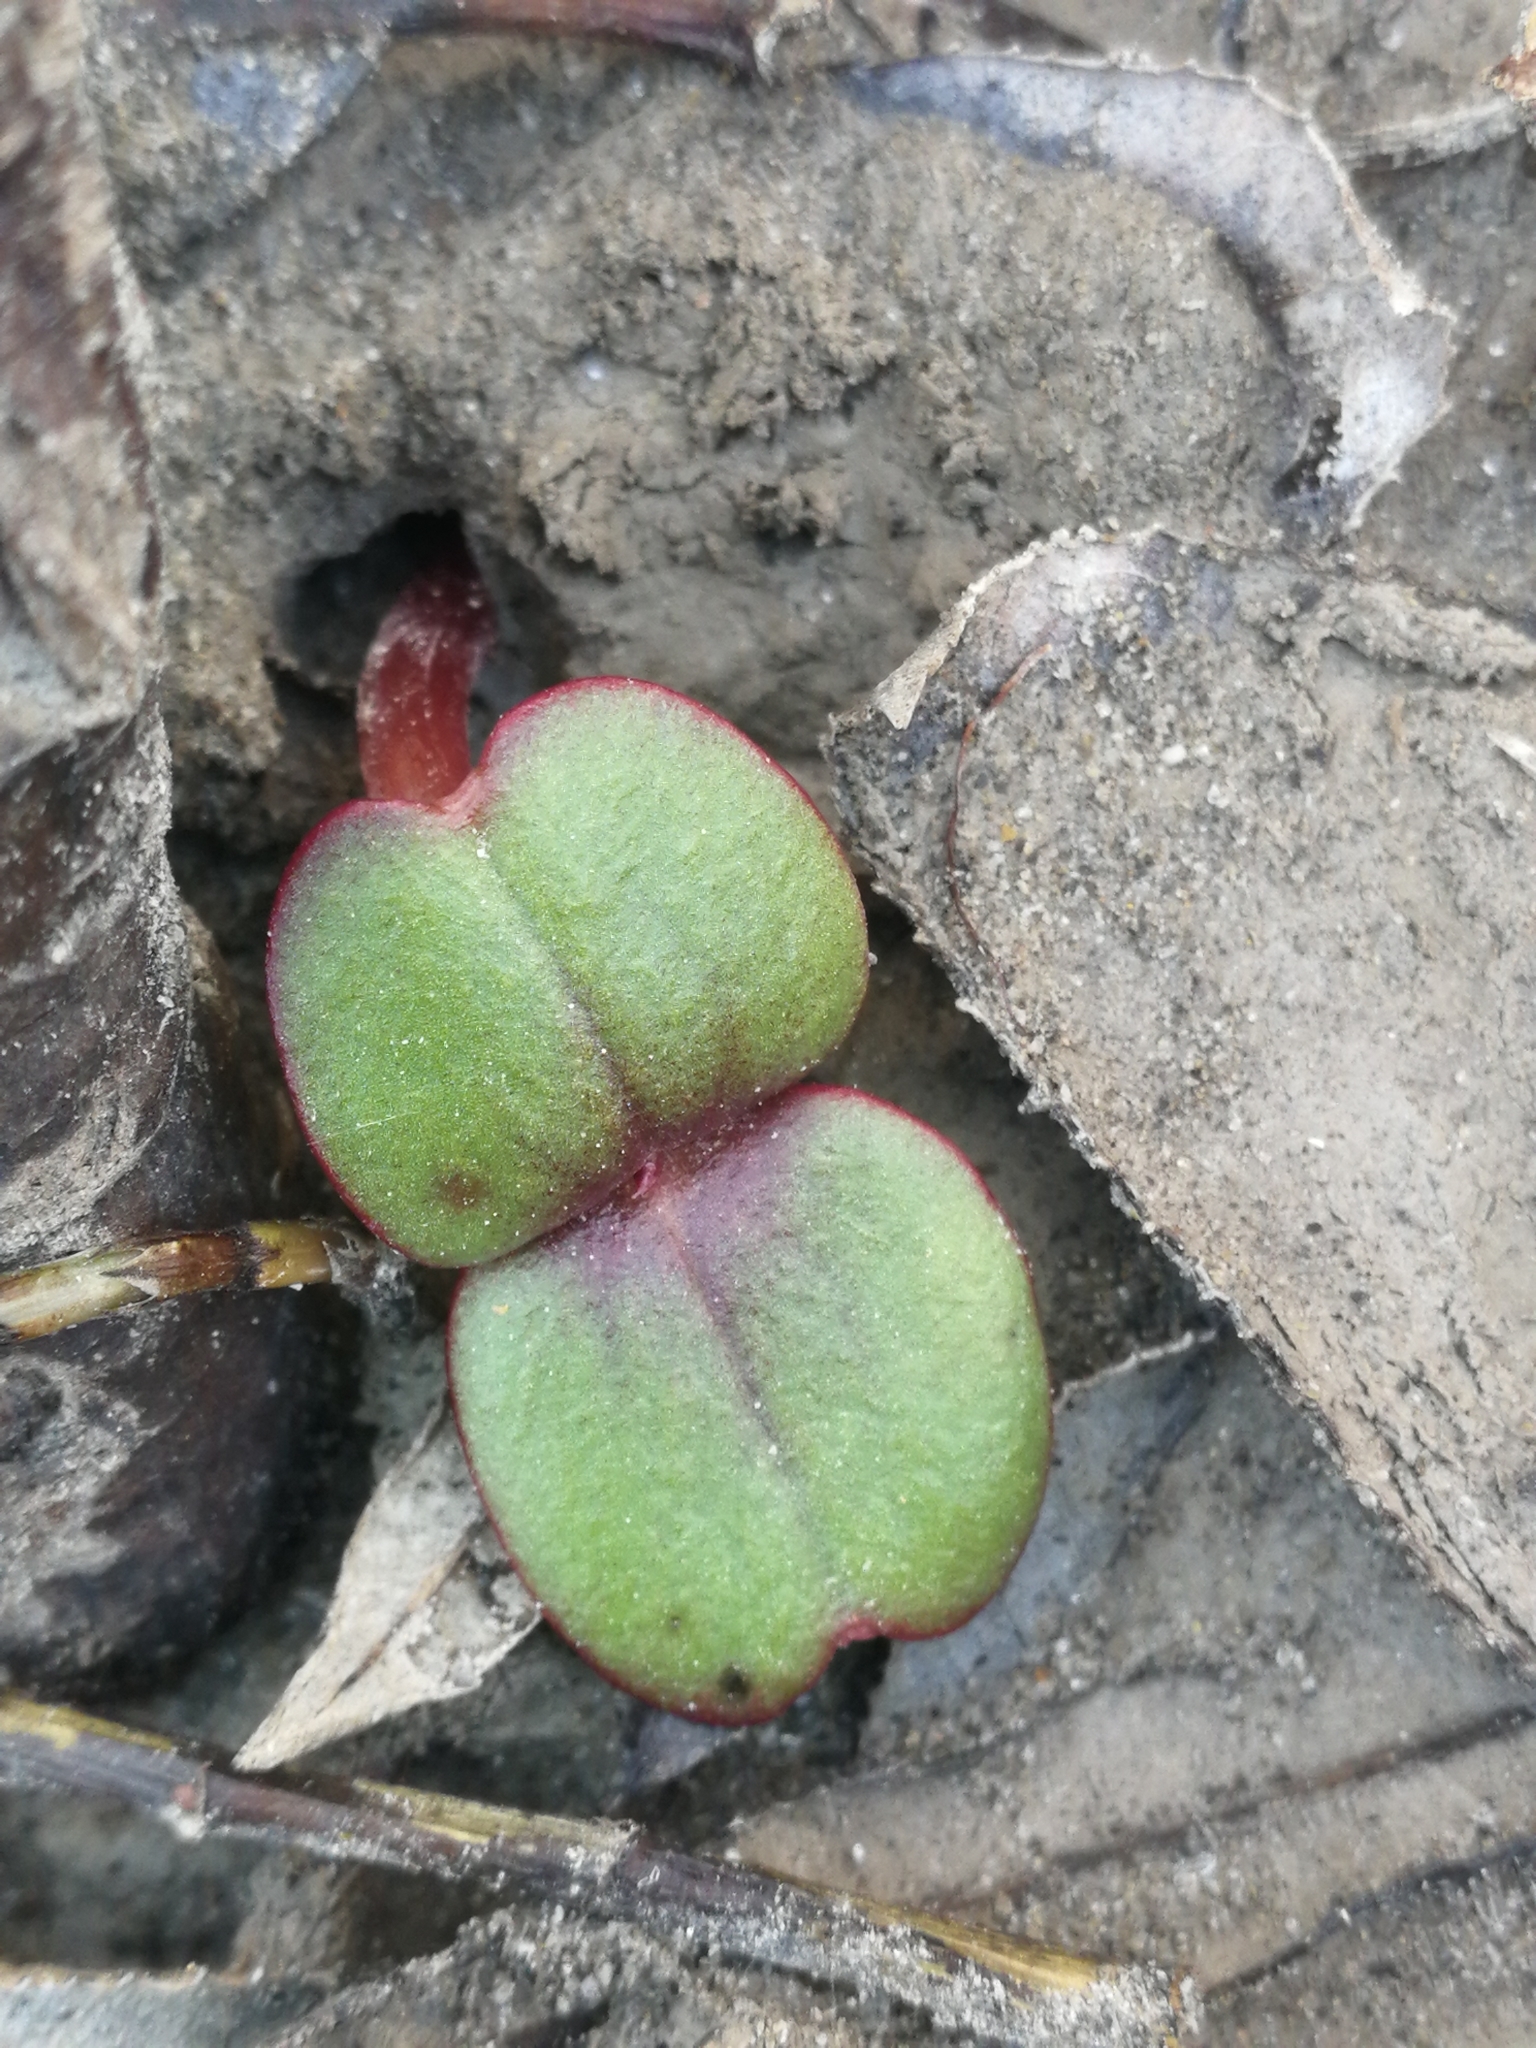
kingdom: Plantae
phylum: Tracheophyta
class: Magnoliopsida
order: Ericales
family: Balsaminaceae
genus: Impatiens
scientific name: Impatiens glandulifera
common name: Himalayan balsam
